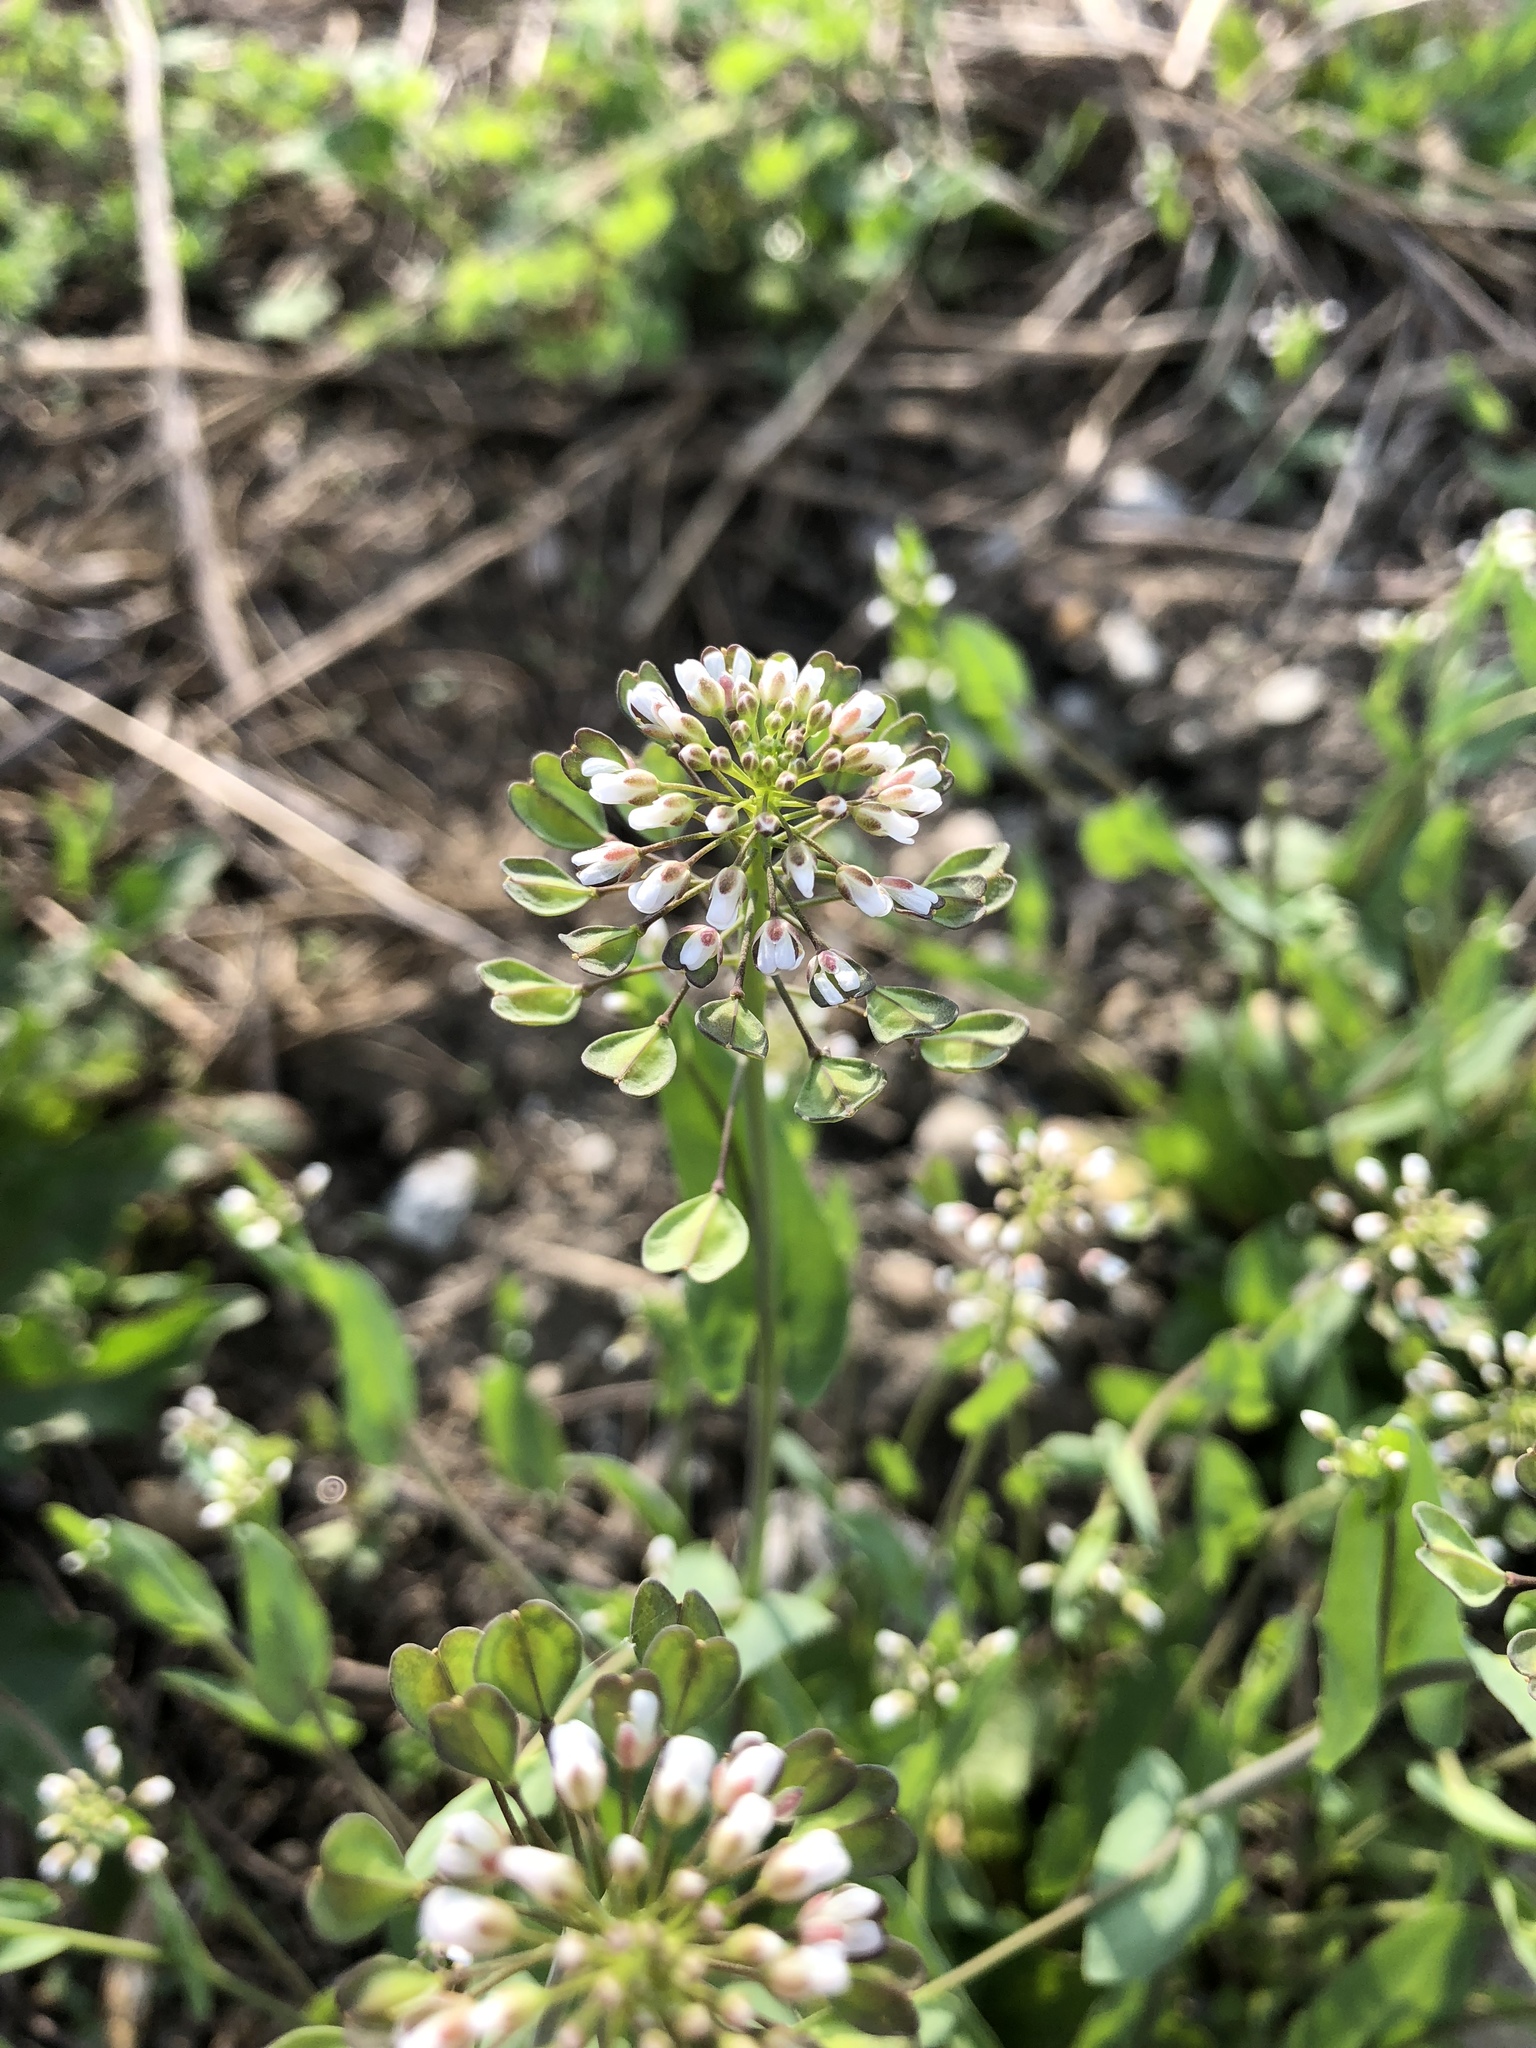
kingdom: Plantae
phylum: Tracheophyta
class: Magnoliopsida
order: Brassicales
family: Brassicaceae
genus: Noccaea
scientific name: Noccaea perfoliata
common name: Perfoliate pennycress
